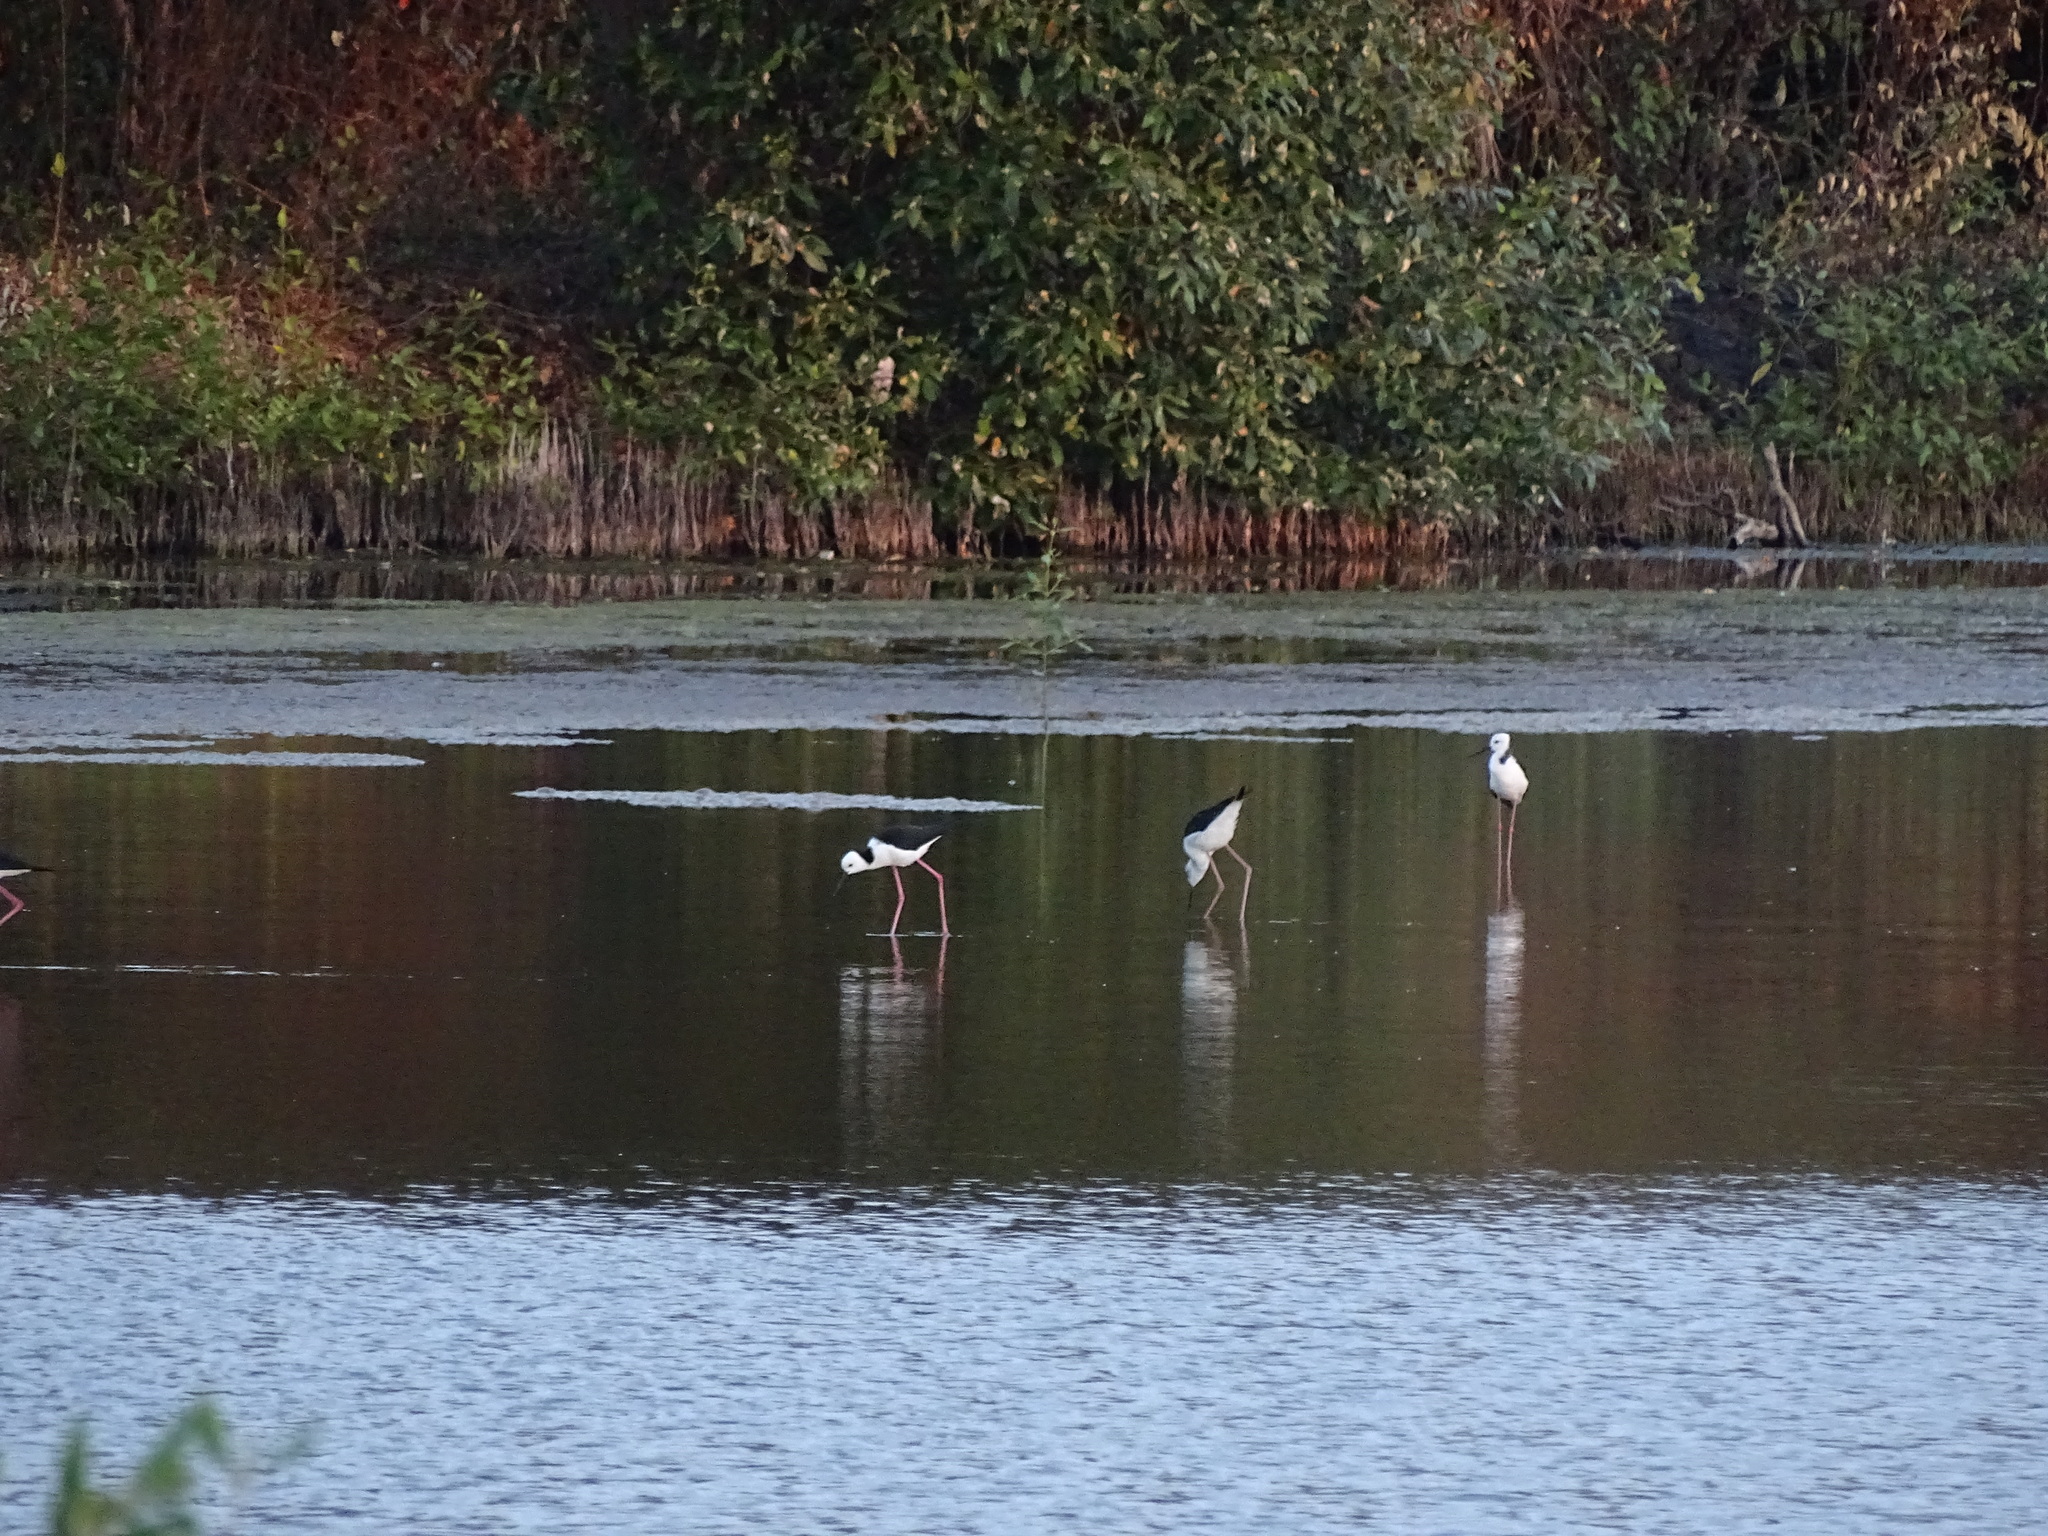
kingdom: Animalia
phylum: Chordata
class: Aves
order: Charadriiformes
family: Recurvirostridae
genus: Himantopus
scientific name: Himantopus leucocephalus
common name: White-headed stilt
